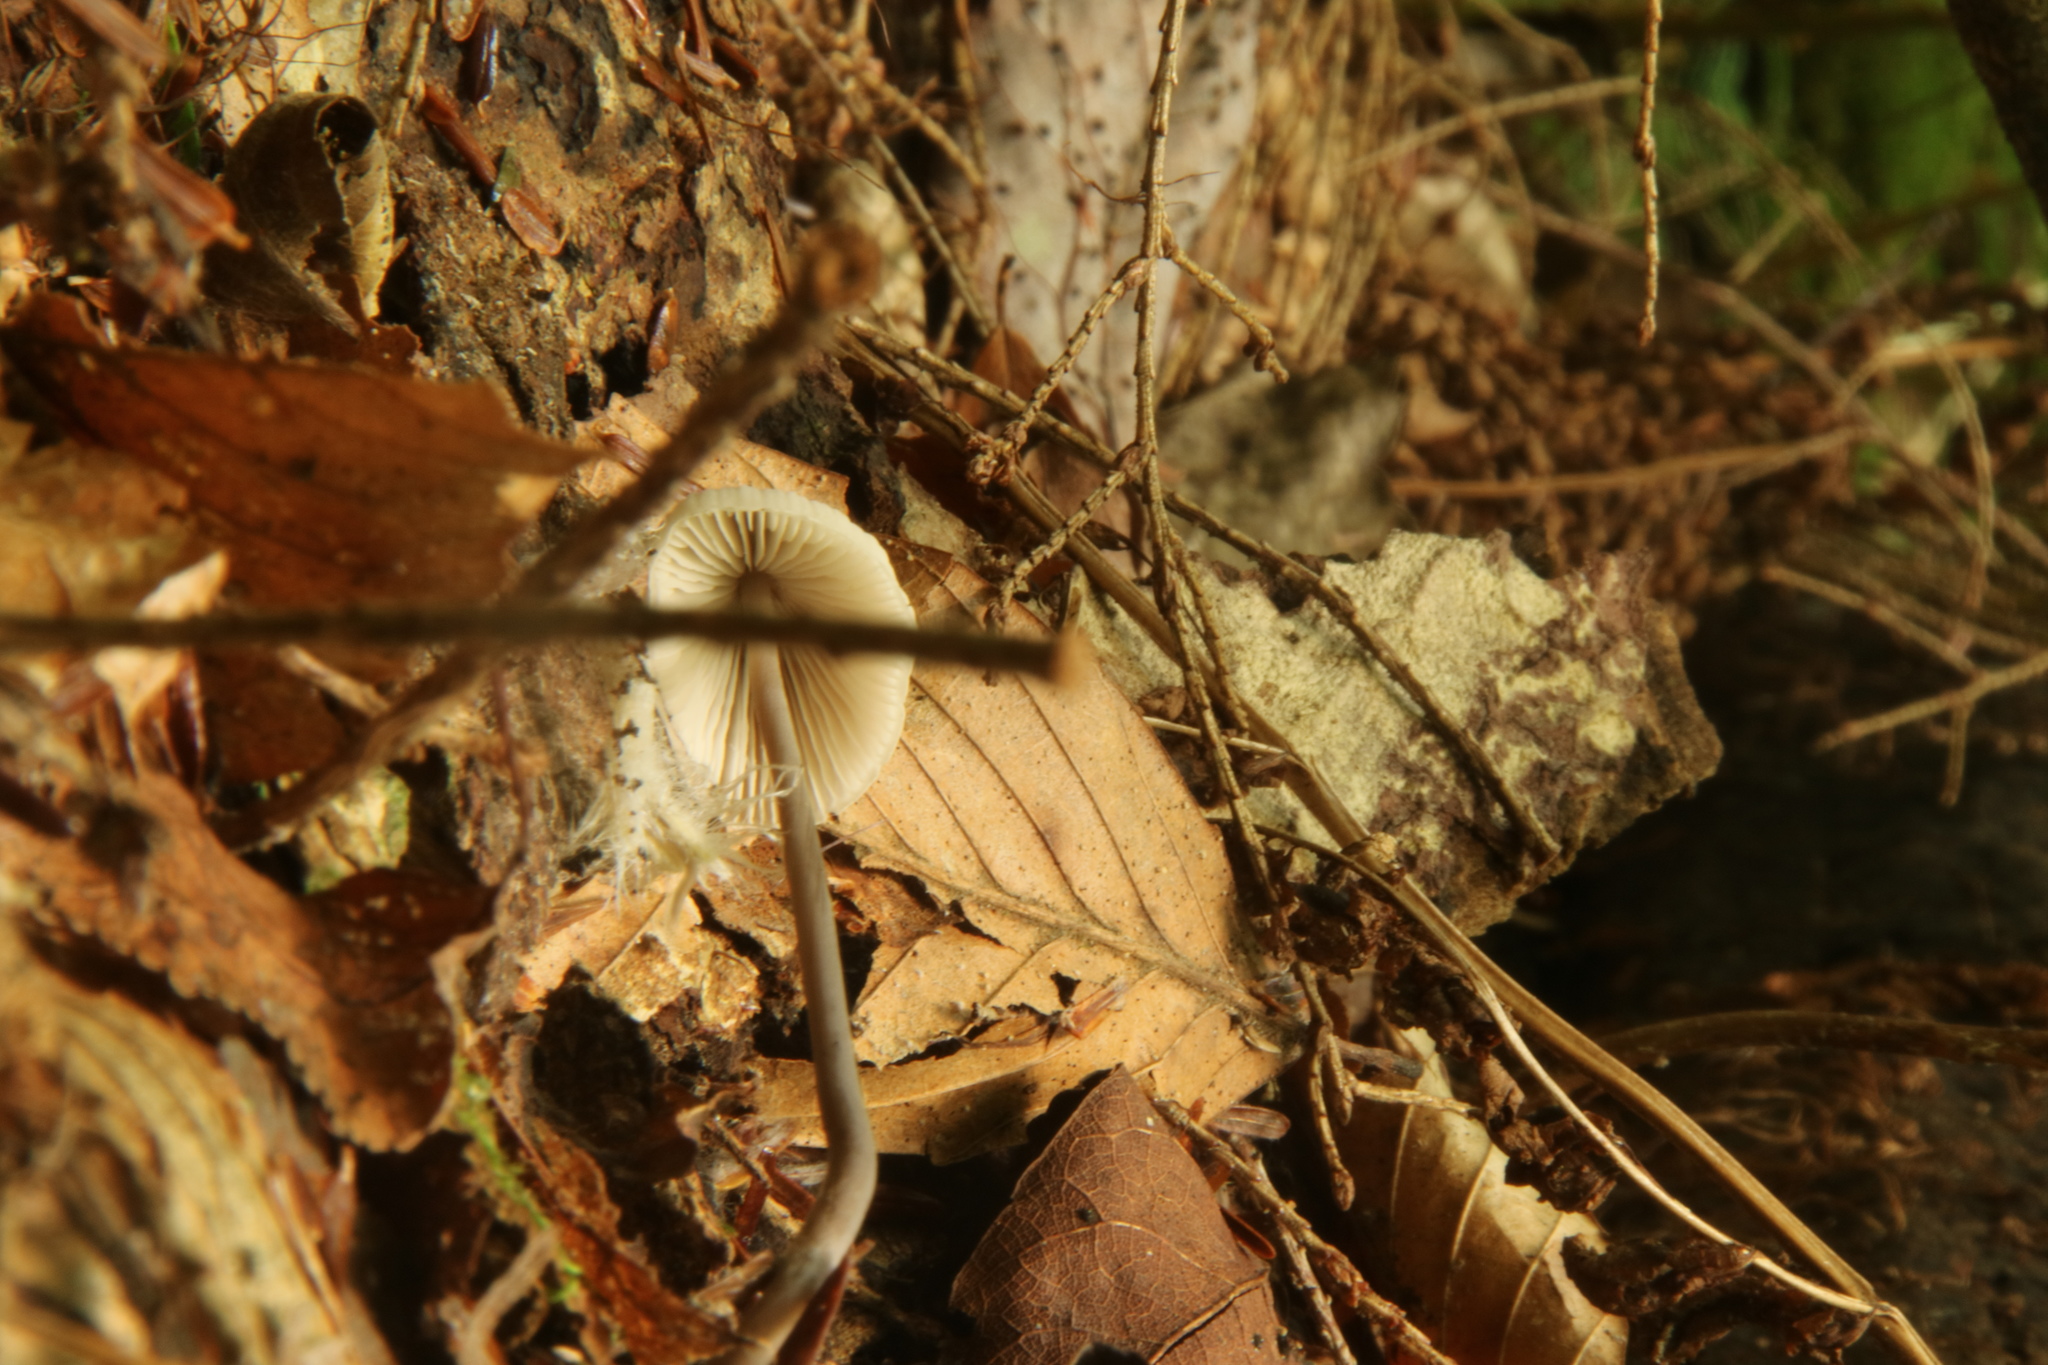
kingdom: Fungi
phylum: Basidiomycota
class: Agaricomycetes
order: Agaricales
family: Entolomataceae
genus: Entoloma
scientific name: Entoloma alboumbonatum
